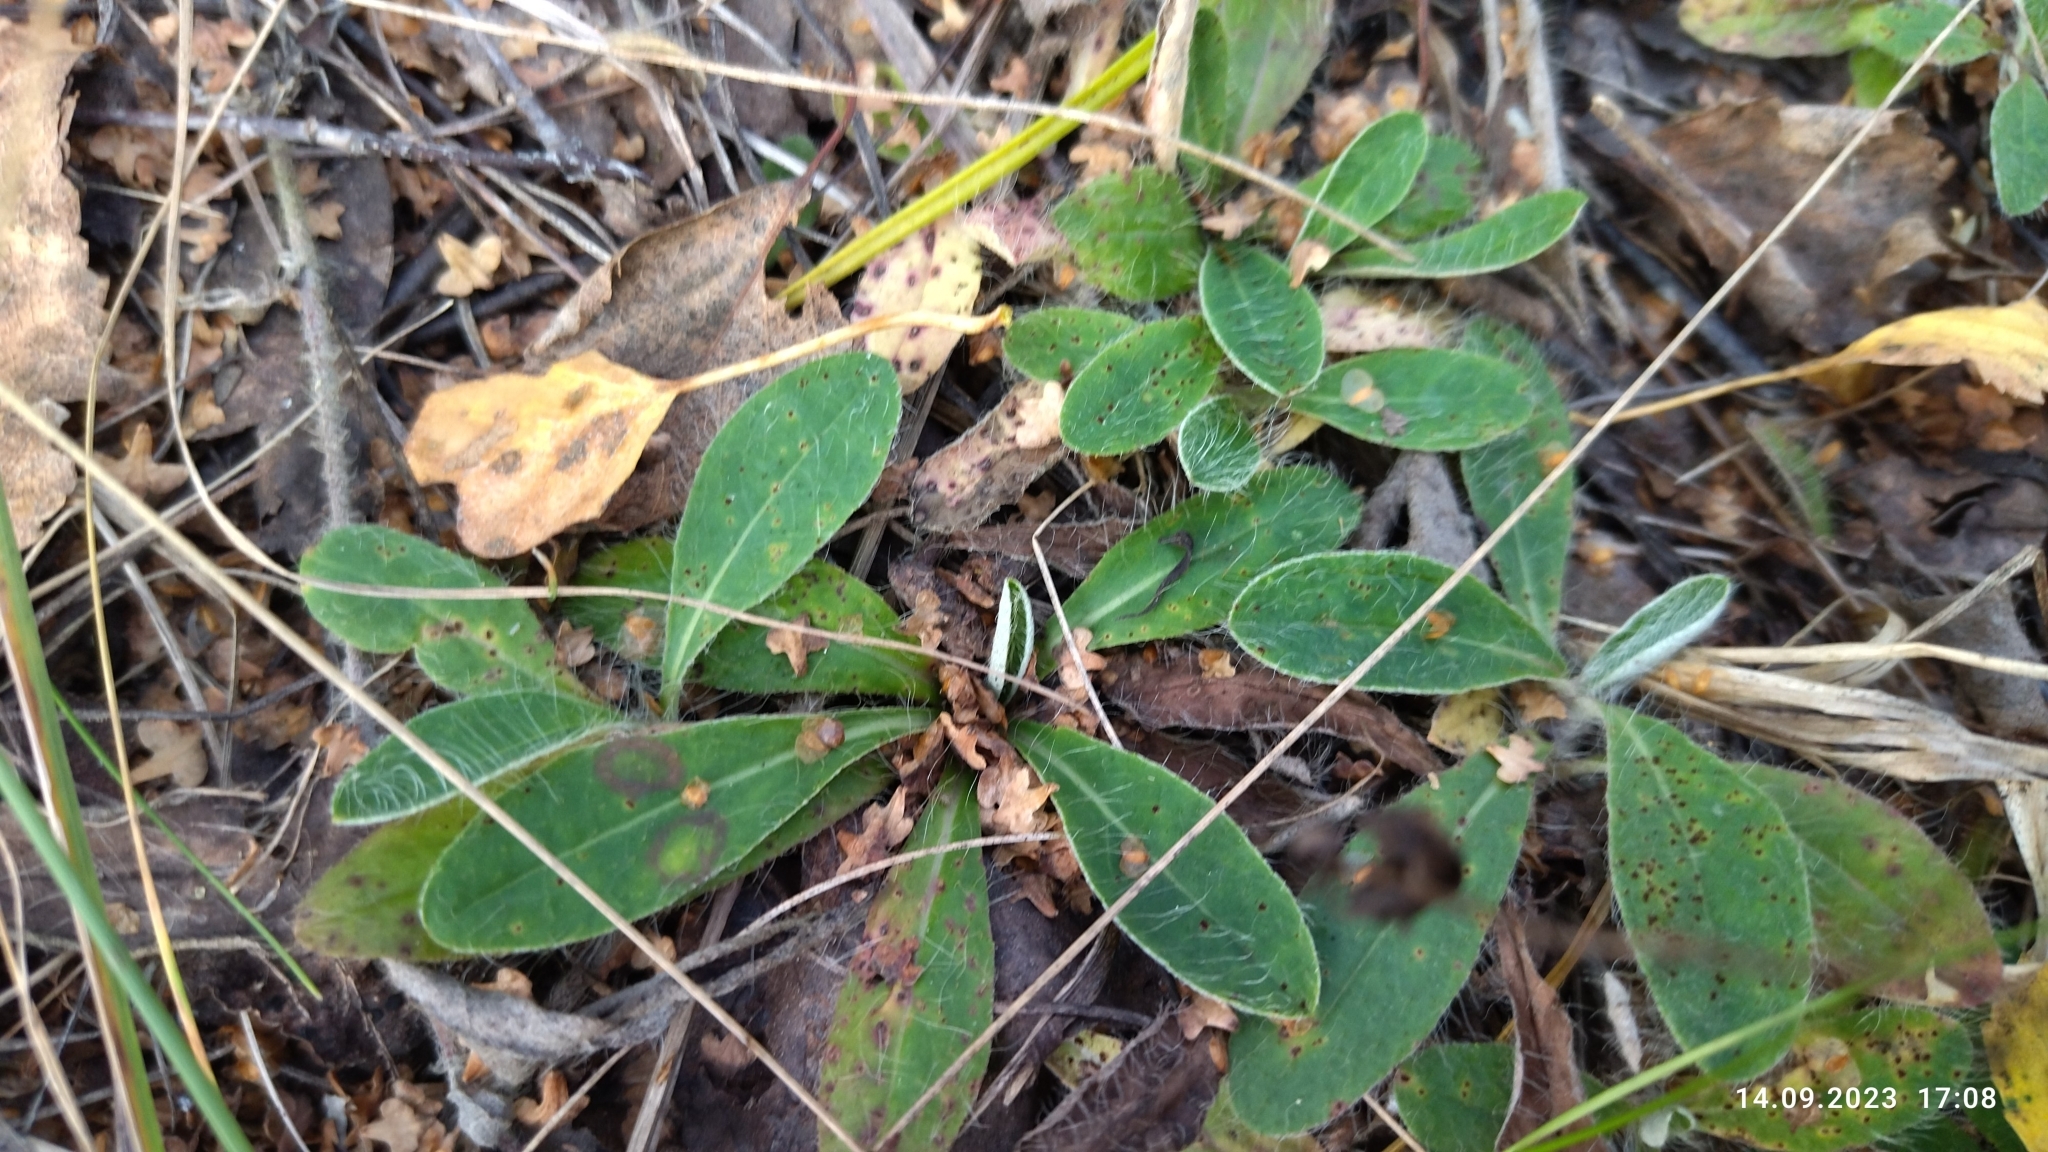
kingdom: Plantae
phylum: Tracheophyta
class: Magnoliopsida
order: Asterales
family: Asteraceae
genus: Pilosella
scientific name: Pilosella officinarum
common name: Mouse-ear hawkweed
